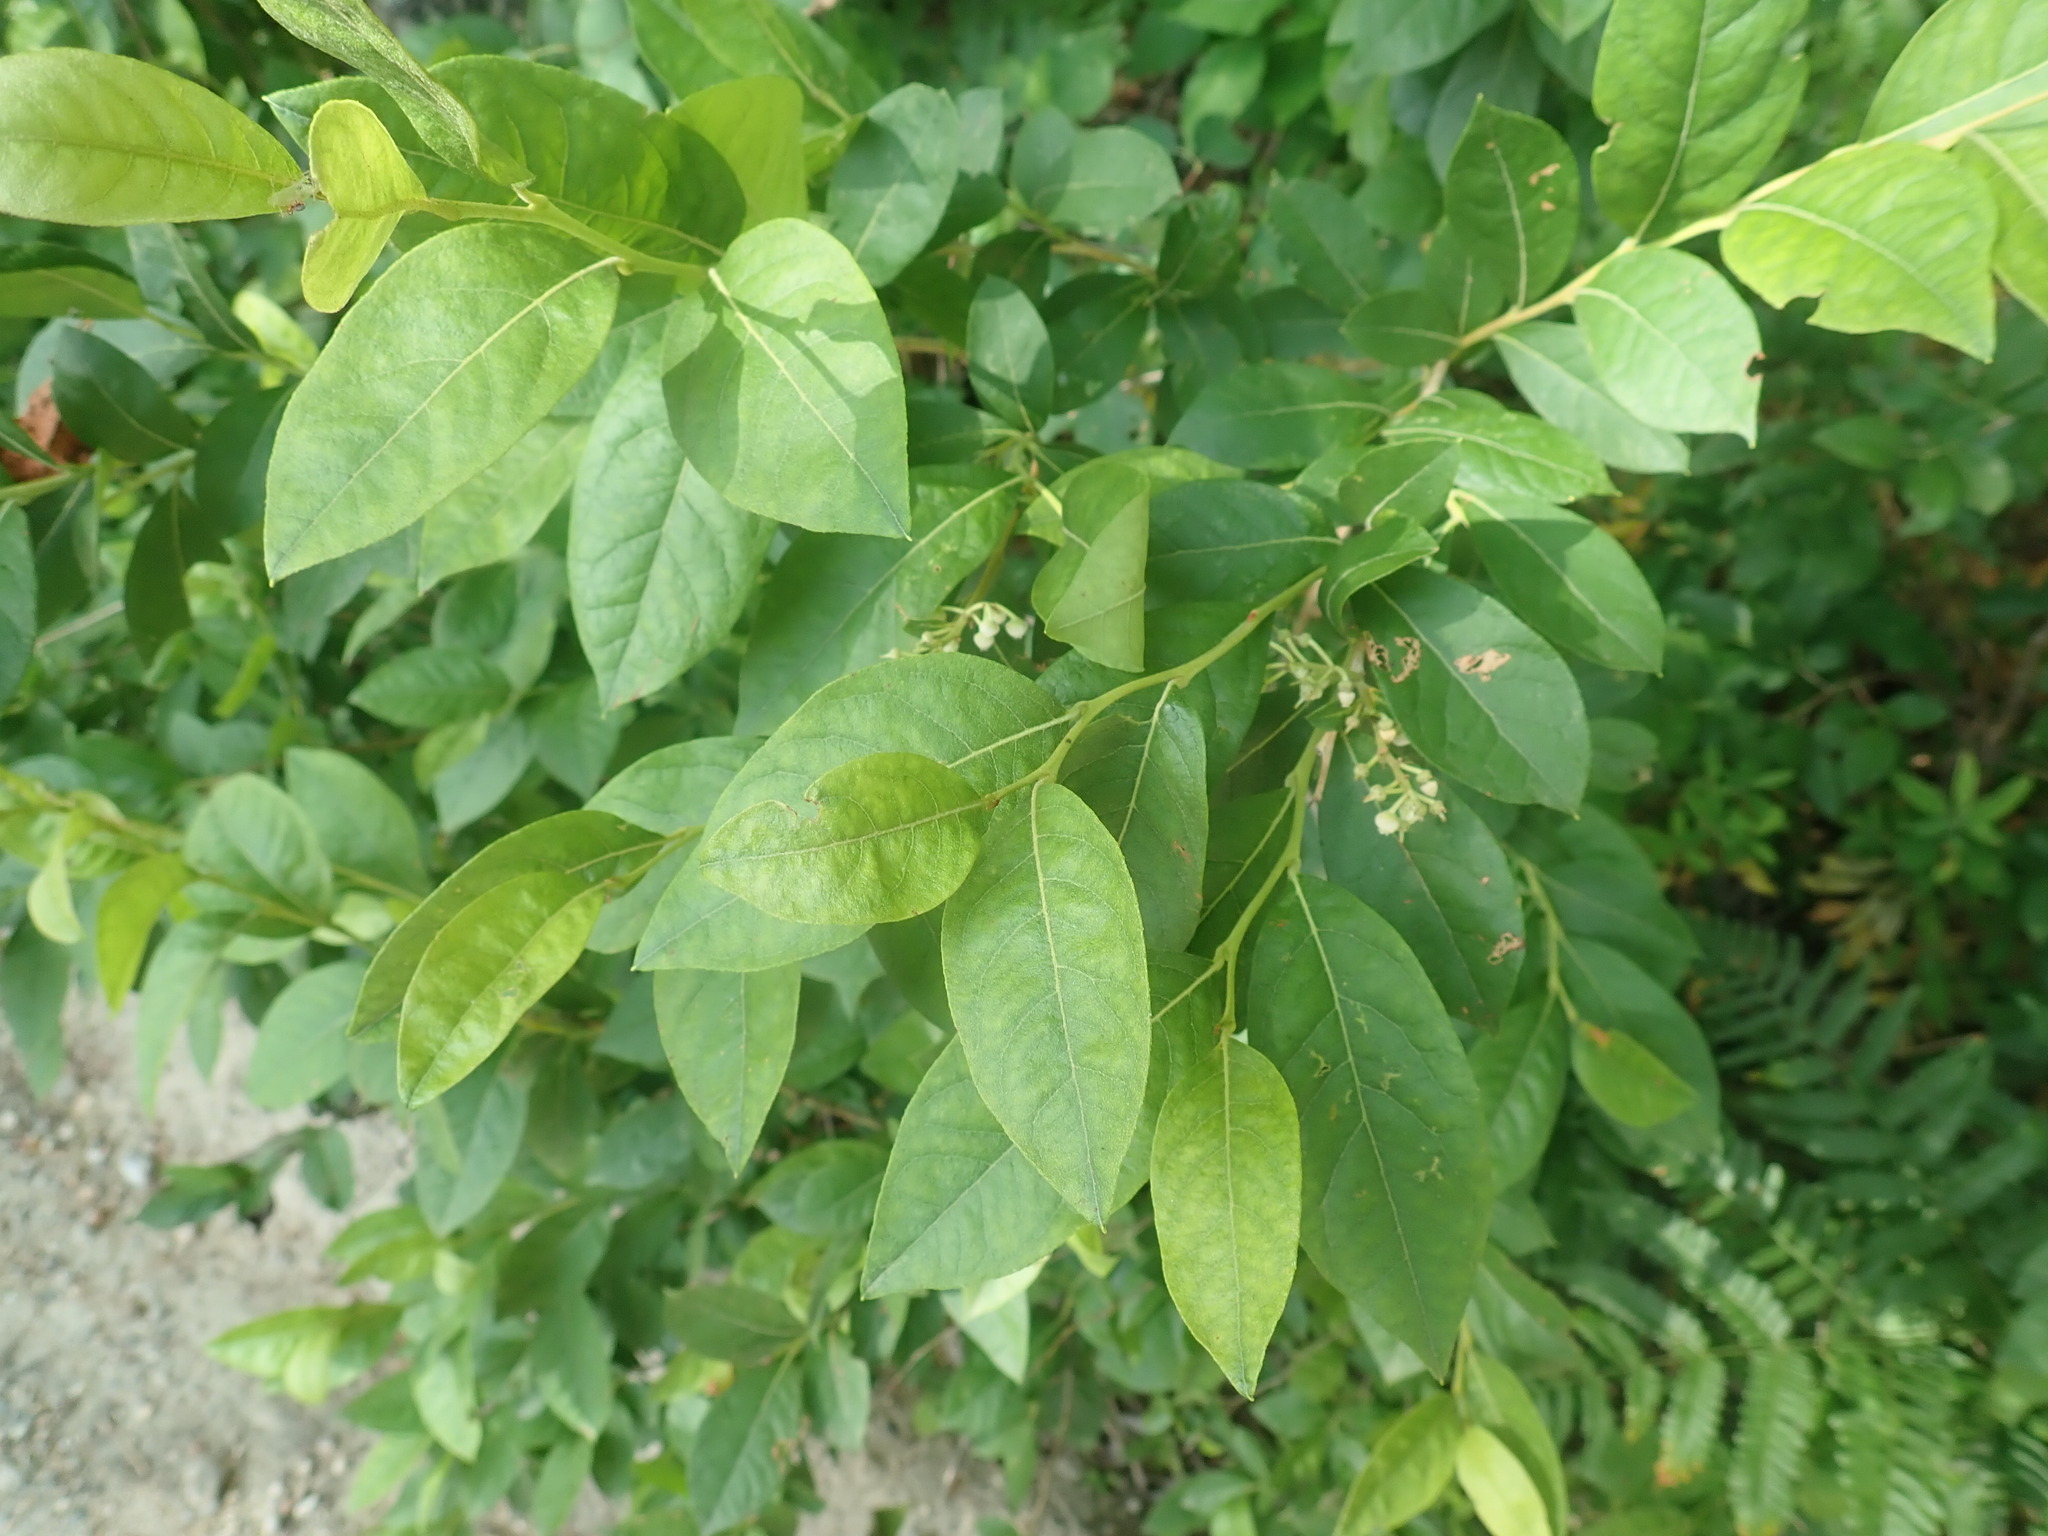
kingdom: Plantae
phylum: Tracheophyta
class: Magnoliopsida
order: Ericales
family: Ericaceae
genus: Lyonia
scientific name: Lyonia ligustrina
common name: Maleberry
